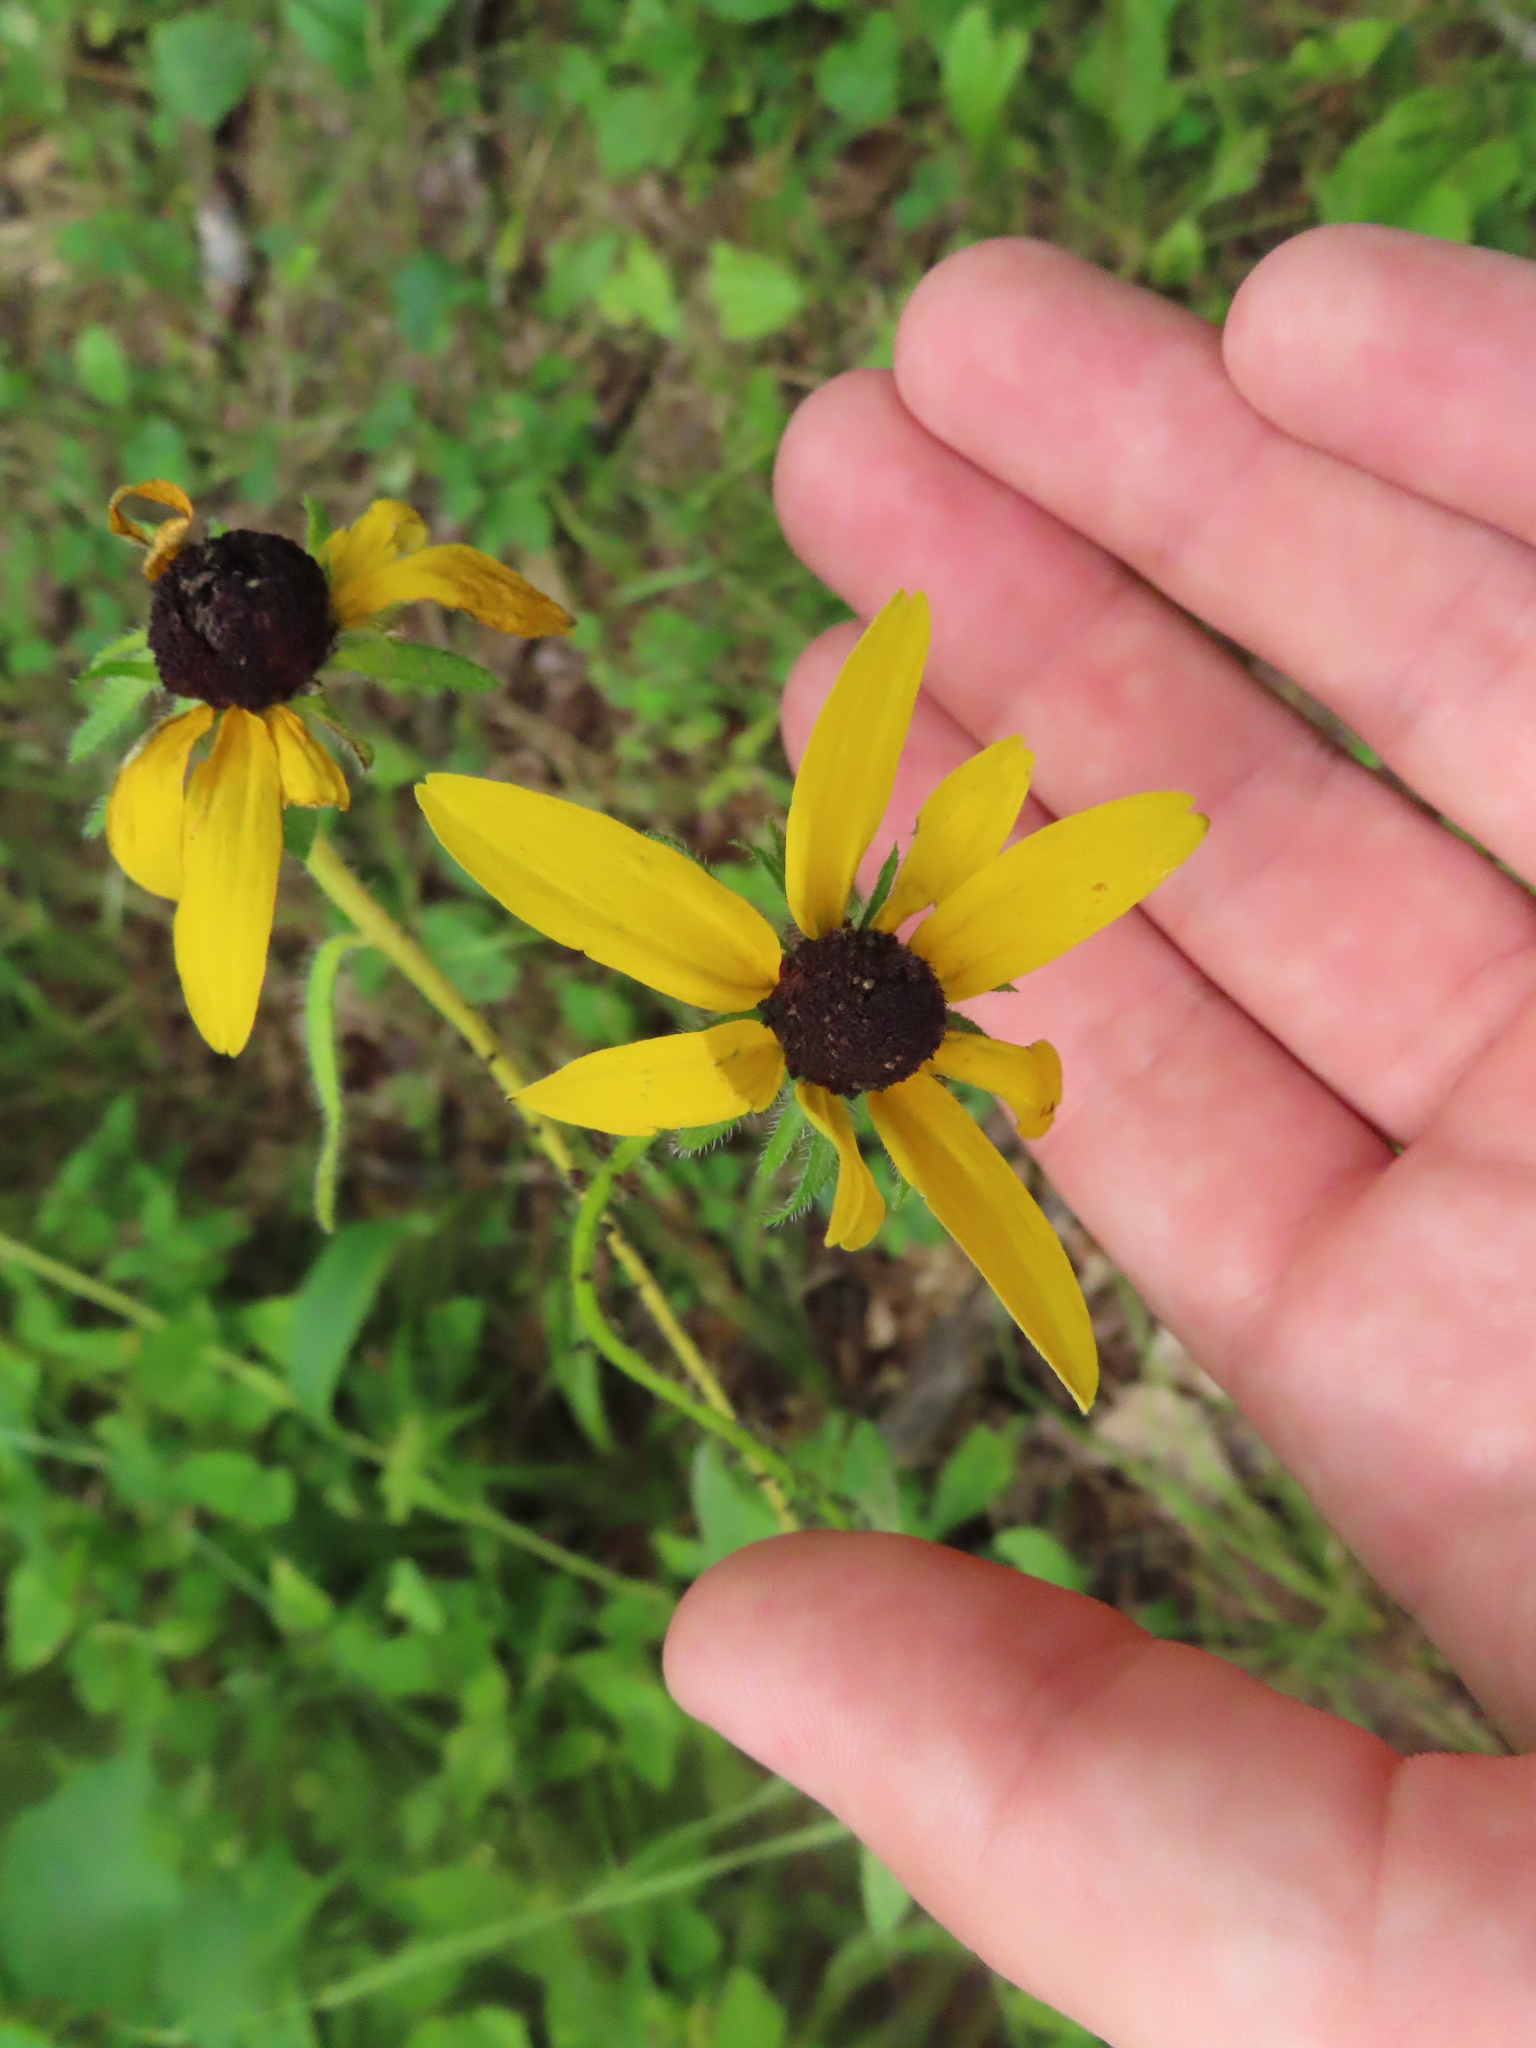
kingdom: Plantae
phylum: Tracheophyta
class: Magnoliopsida
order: Asterales
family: Asteraceae
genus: Rudbeckia
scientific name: Rudbeckia hirta
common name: Black-eyed-susan
